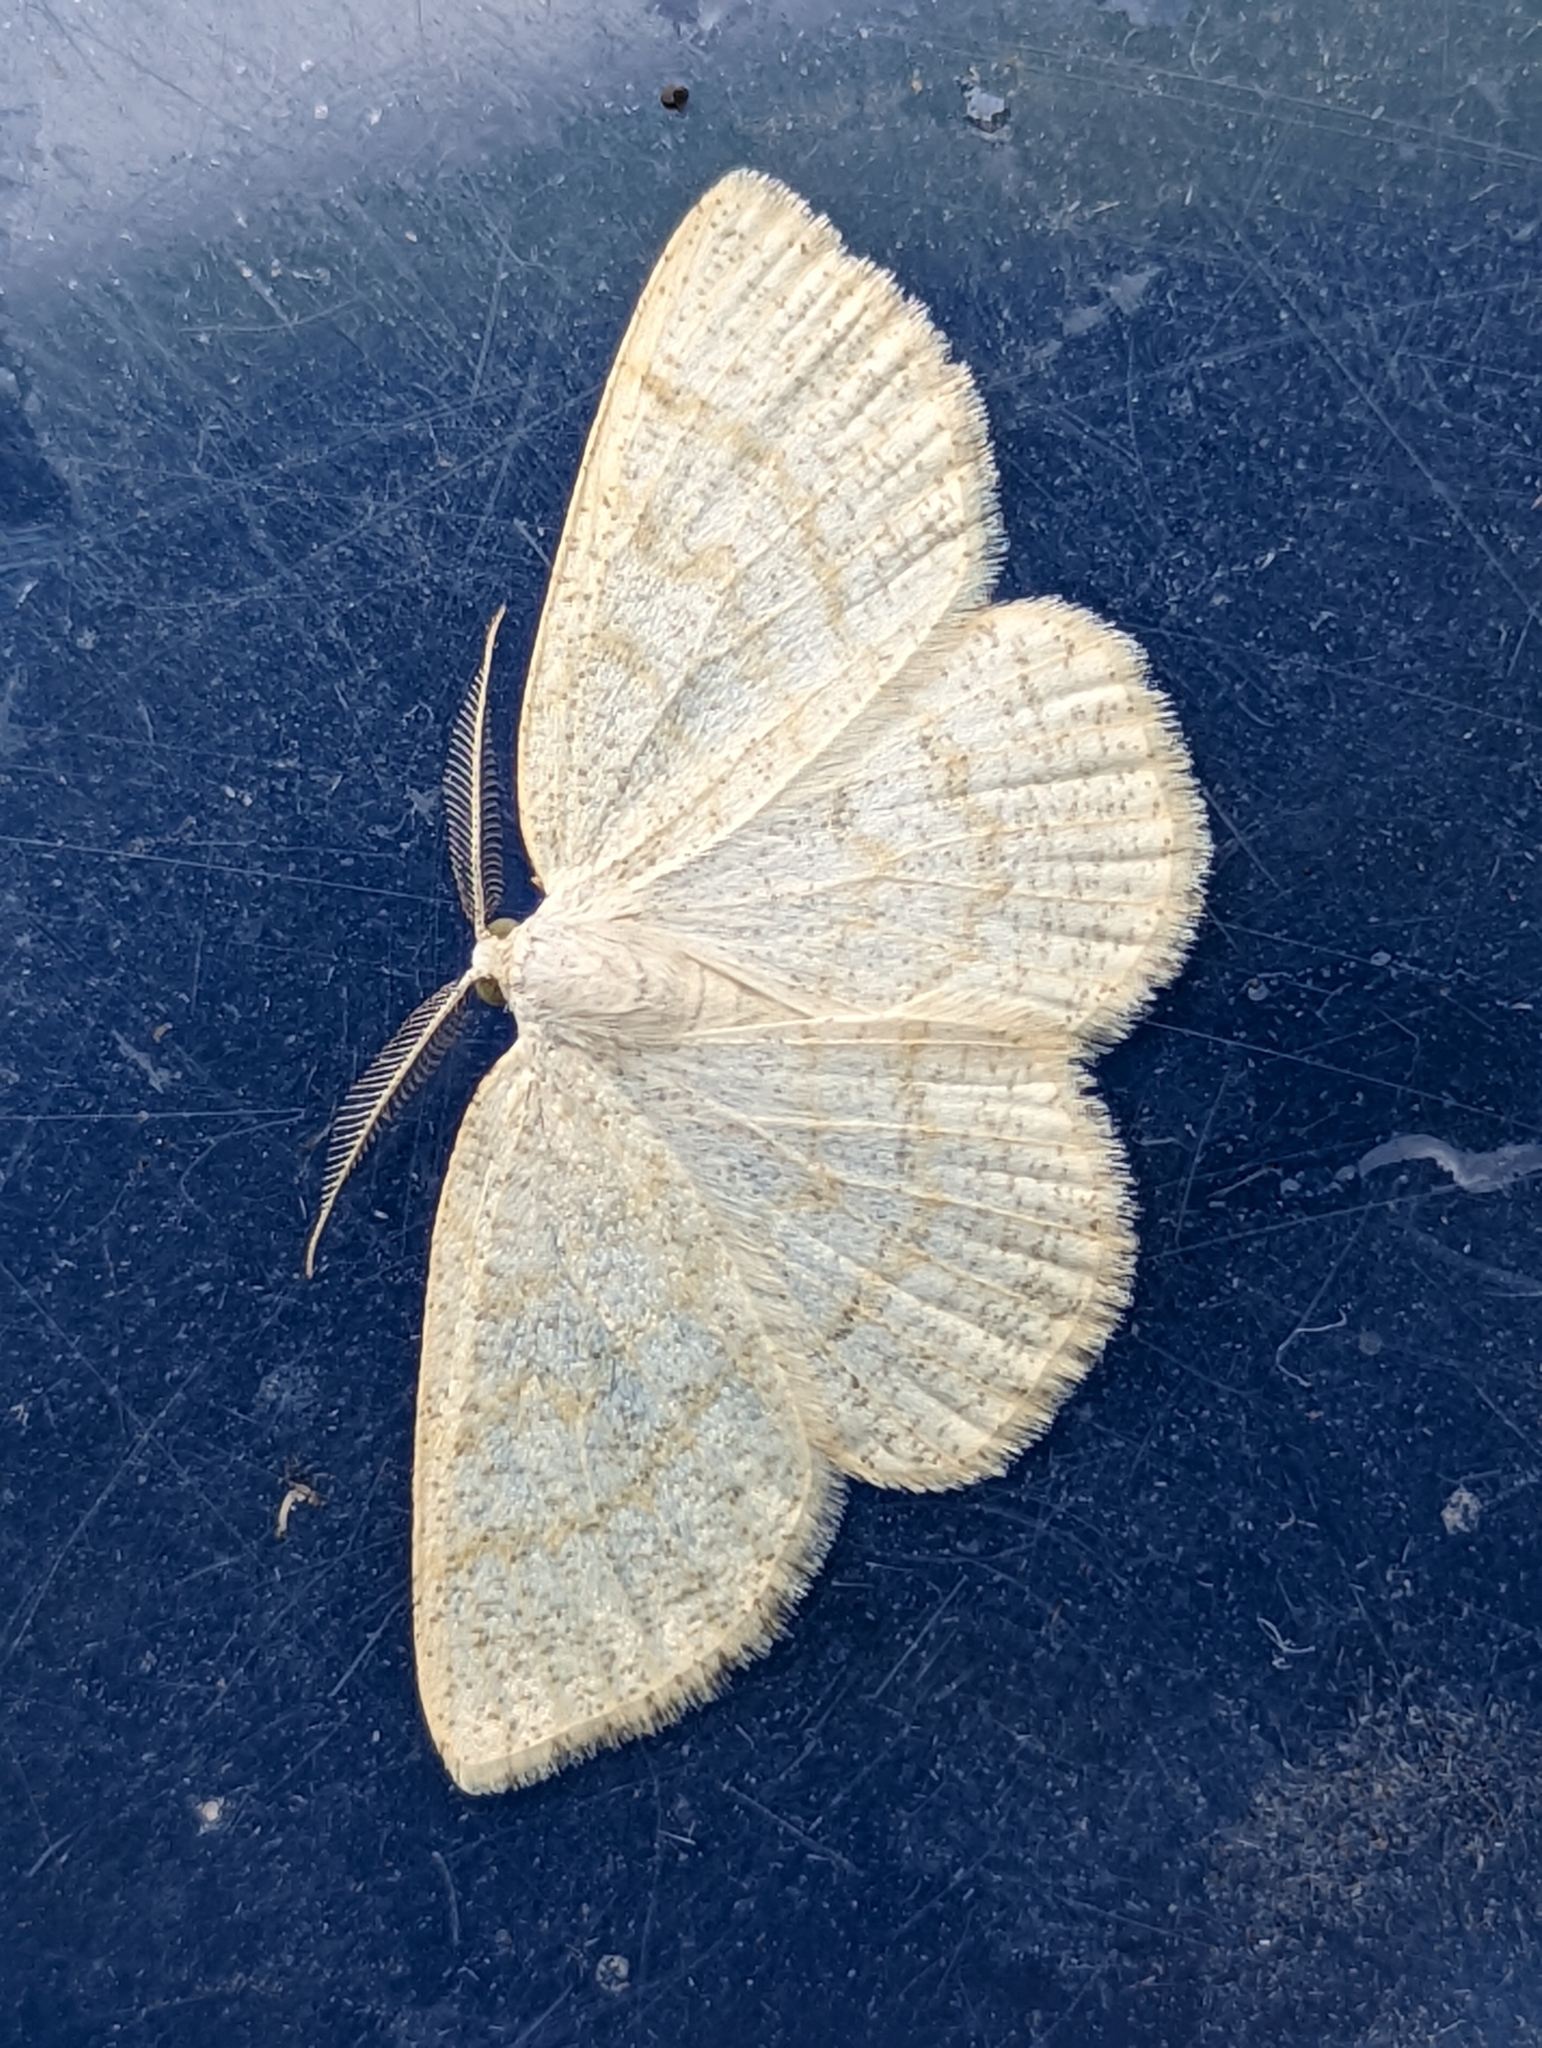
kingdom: Animalia
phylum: Arthropoda
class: Insecta
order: Lepidoptera
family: Geometridae
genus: Cabera
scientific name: Cabera exanthemata
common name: Common wave
